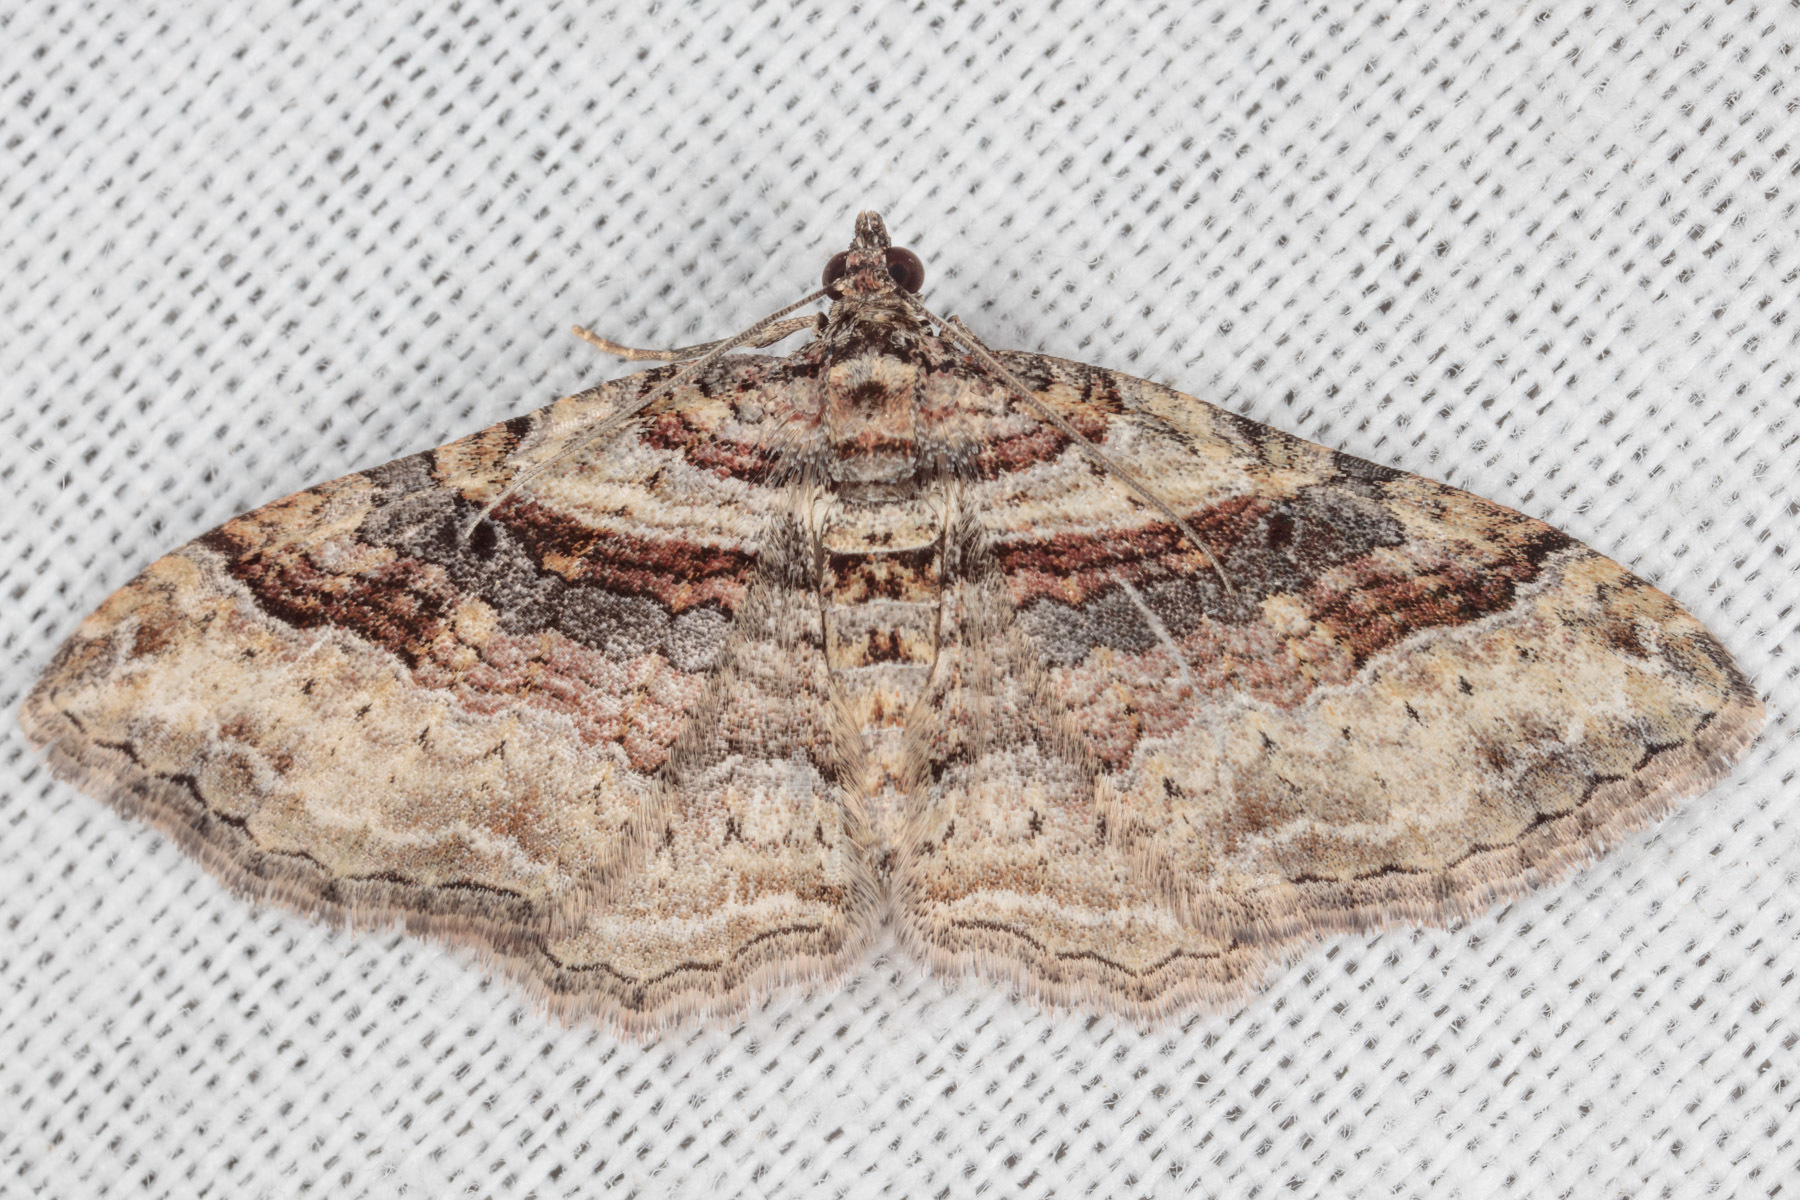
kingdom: Animalia
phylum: Arthropoda
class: Insecta
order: Lepidoptera
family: Geometridae
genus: Costaconvexa
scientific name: Costaconvexa centrostrigaria
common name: Bent-line carpet
